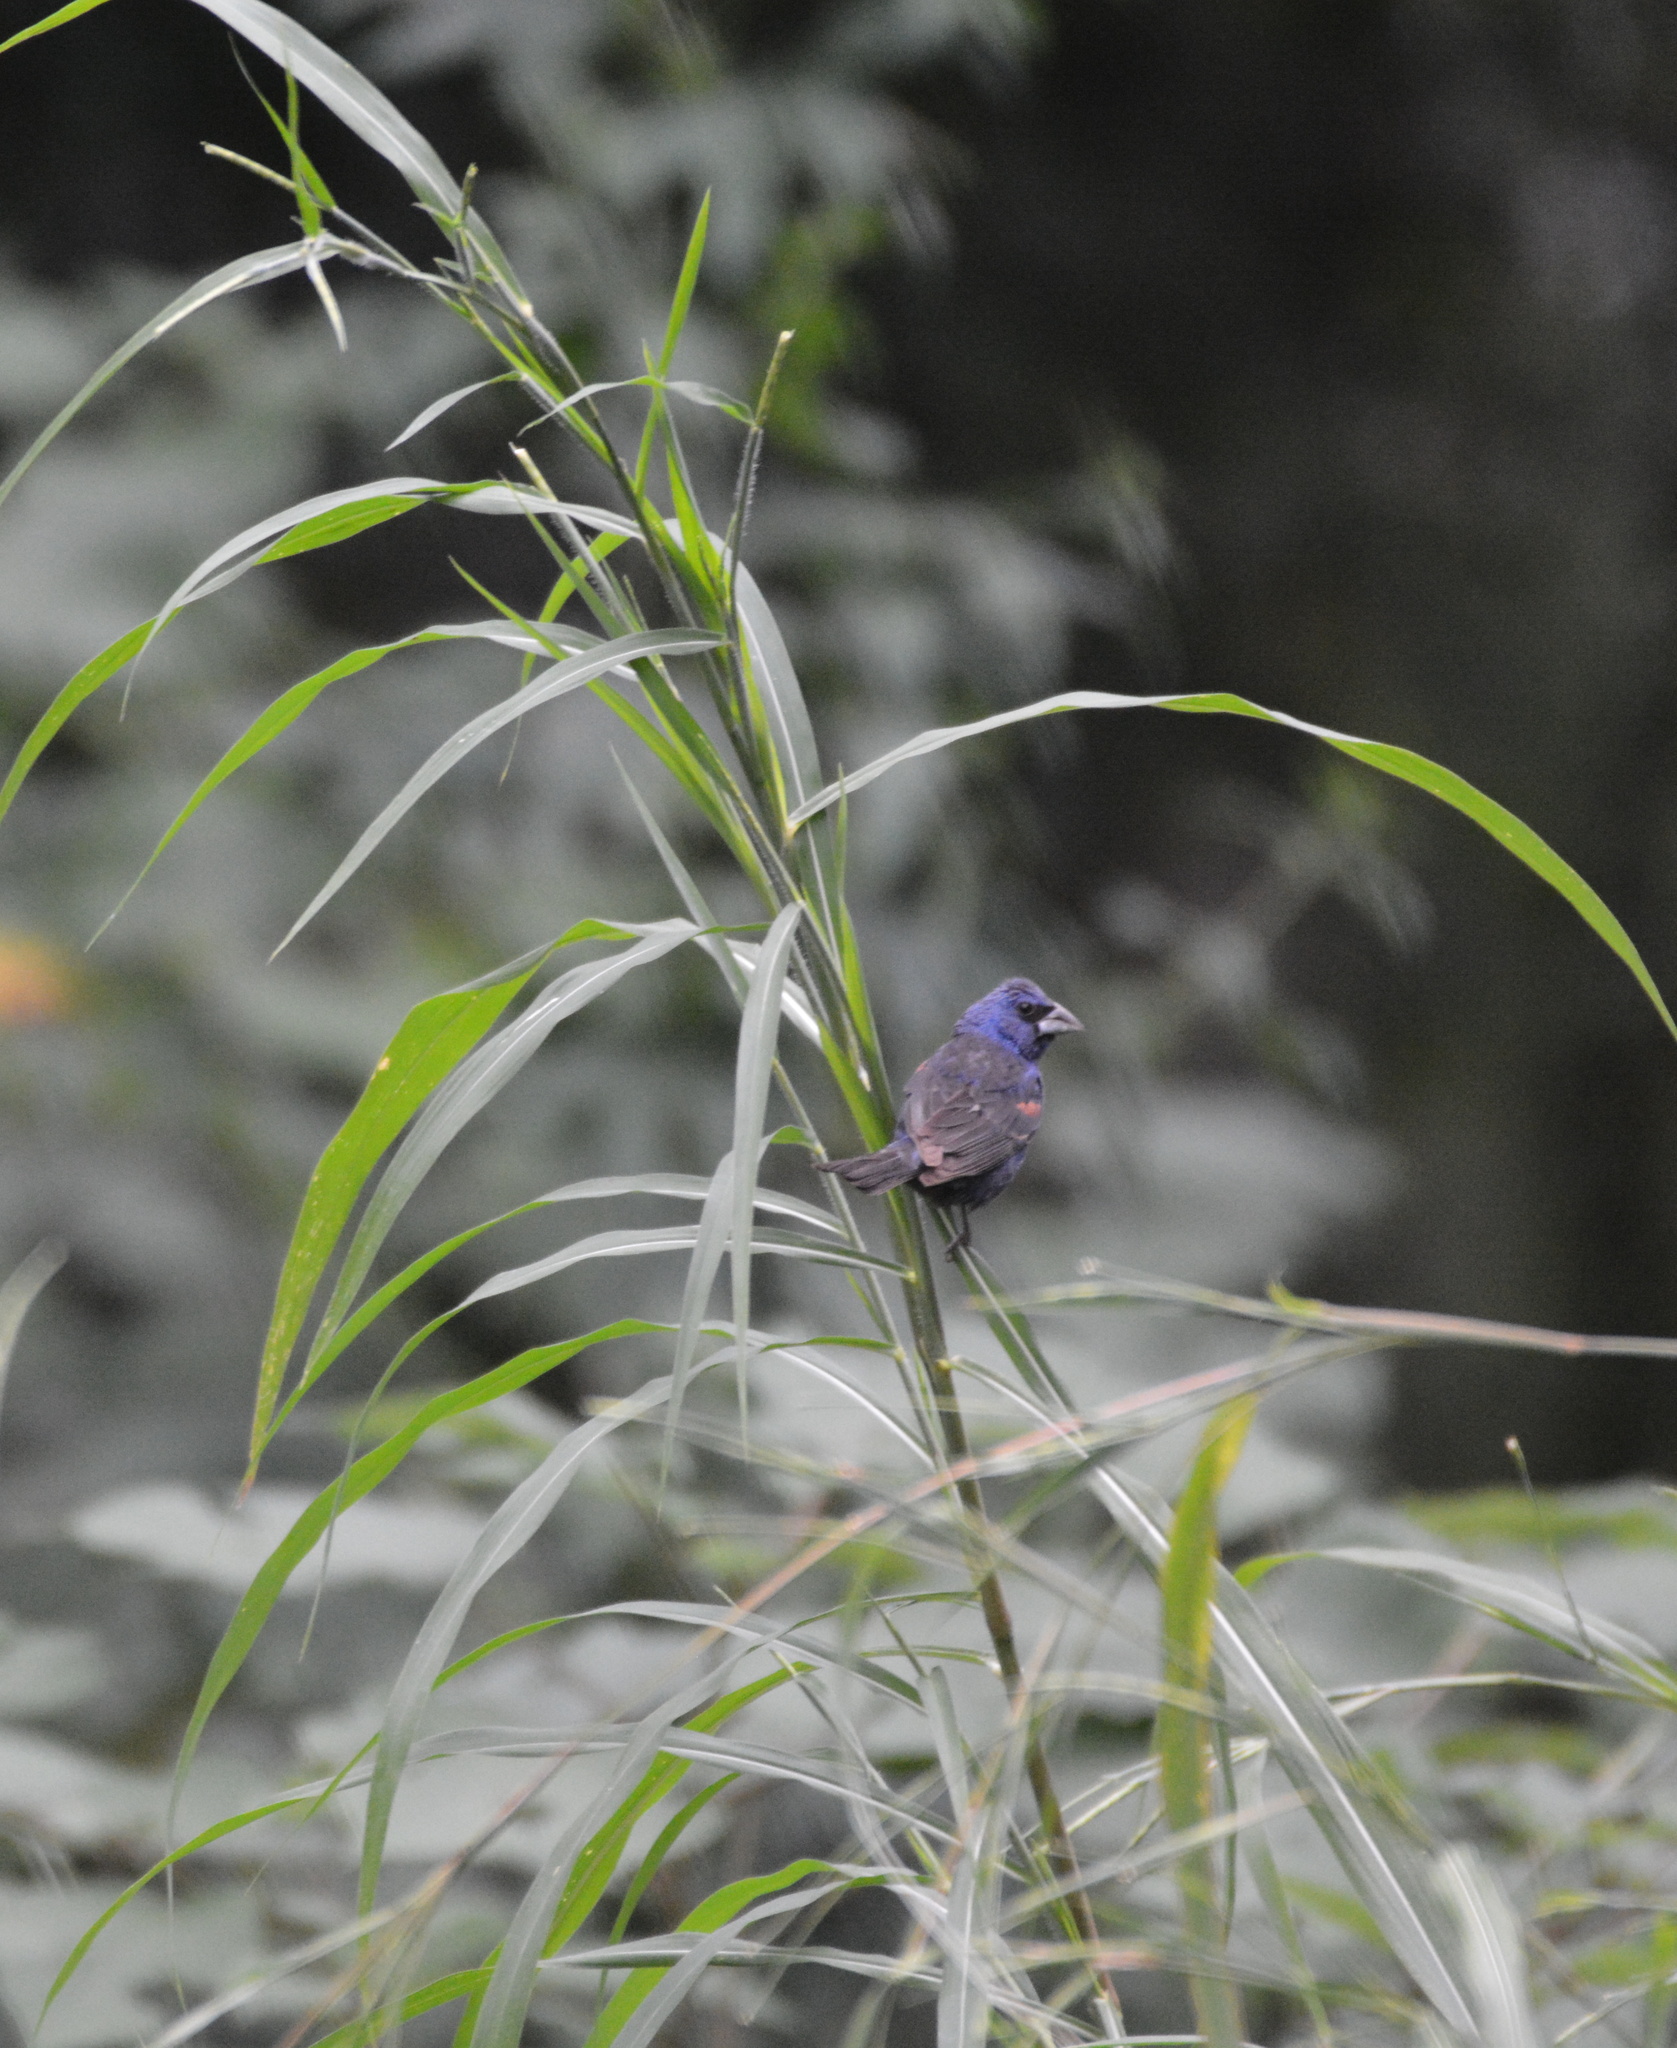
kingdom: Animalia
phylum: Chordata
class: Aves
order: Passeriformes
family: Cardinalidae
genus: Passerina
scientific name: Passerina caerulea
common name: Blue grosbeak
